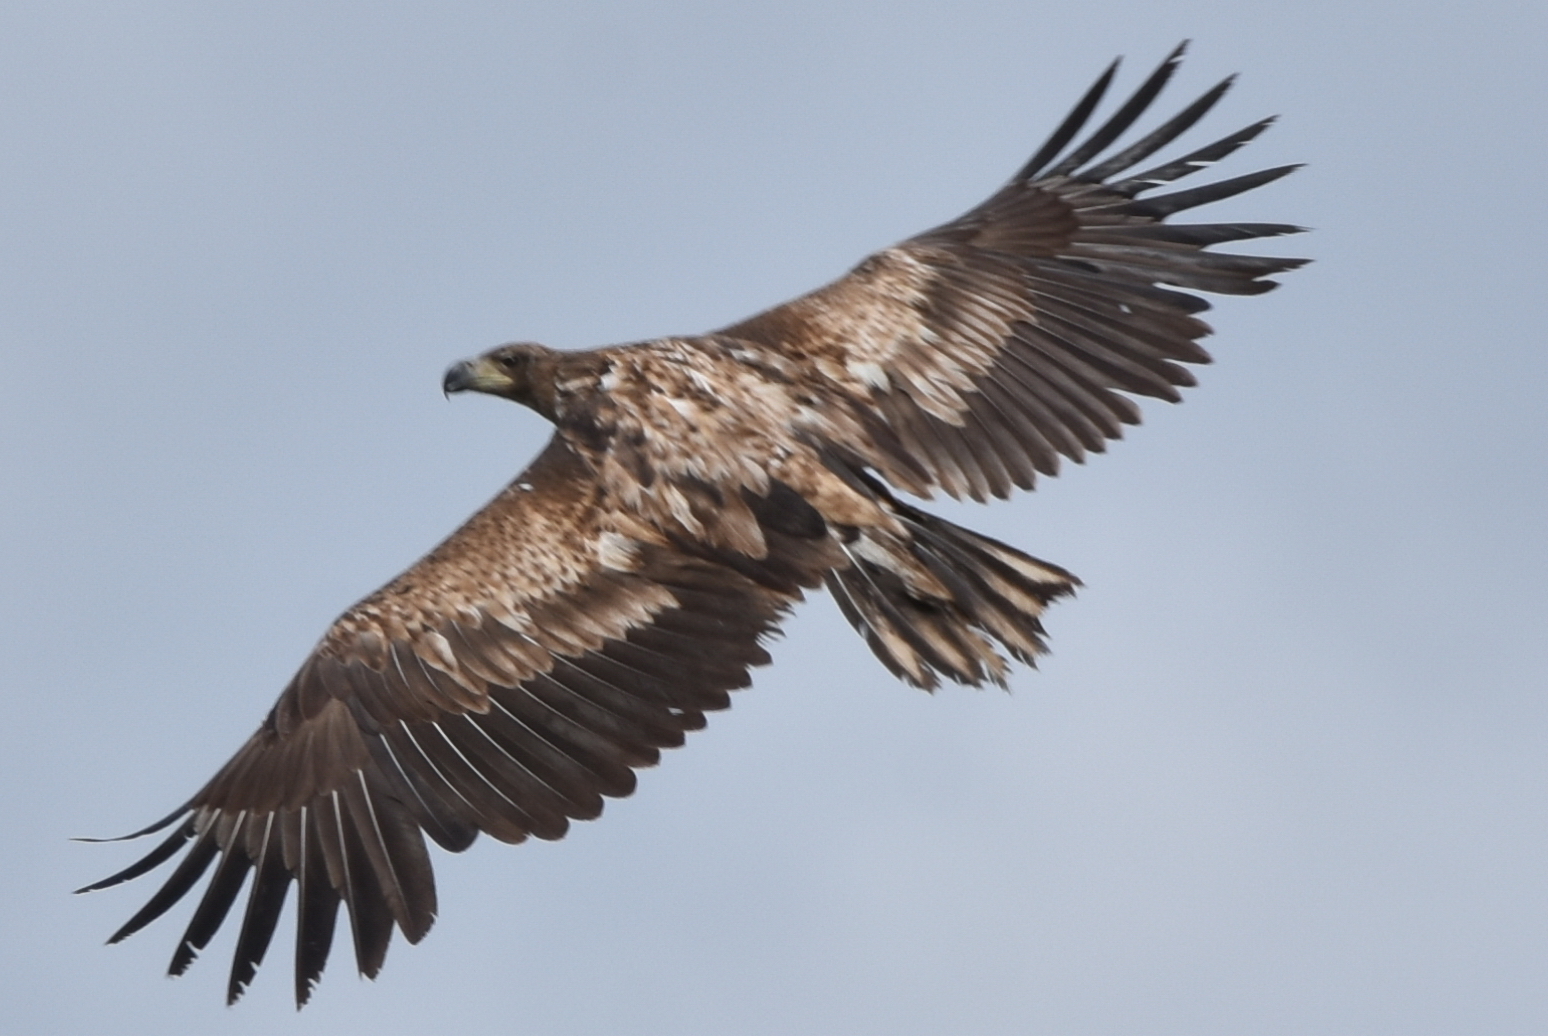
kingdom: Animalia
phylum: Chordata
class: Aves
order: Accipitriformes
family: Accipitridae
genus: Haliaeetus
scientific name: Haliaeetus albicilla
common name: White-tailed eagle
